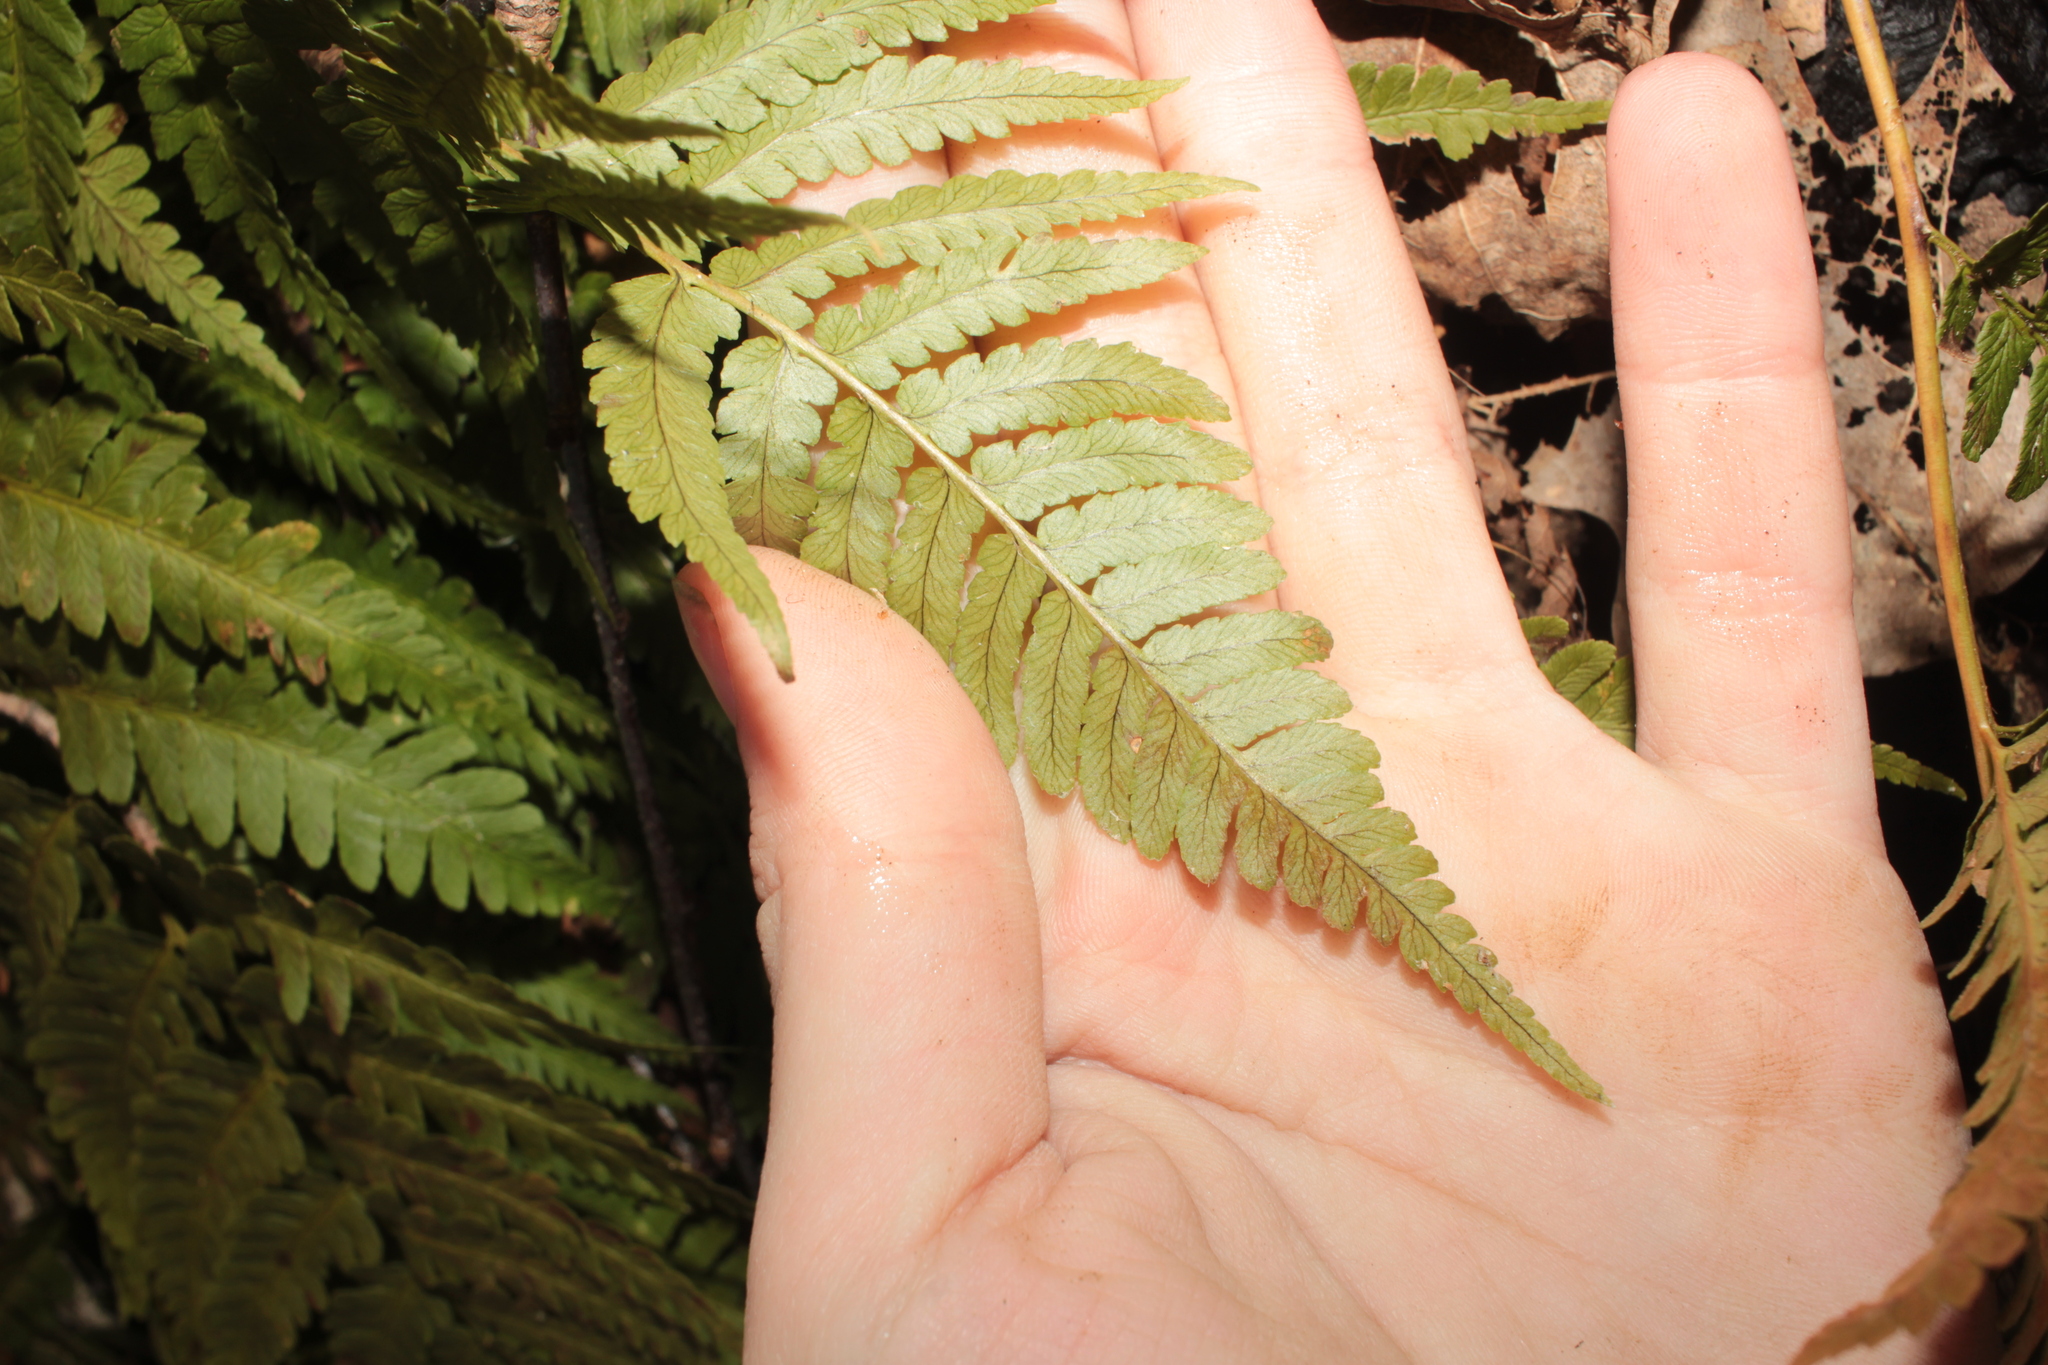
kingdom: Plantae
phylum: Tracheophyta
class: Polypodiopsida
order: Polypodiales
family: Dryopteridaceae
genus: Dryopteris
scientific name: Dryopteris marginalis
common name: Marginal wood fern
